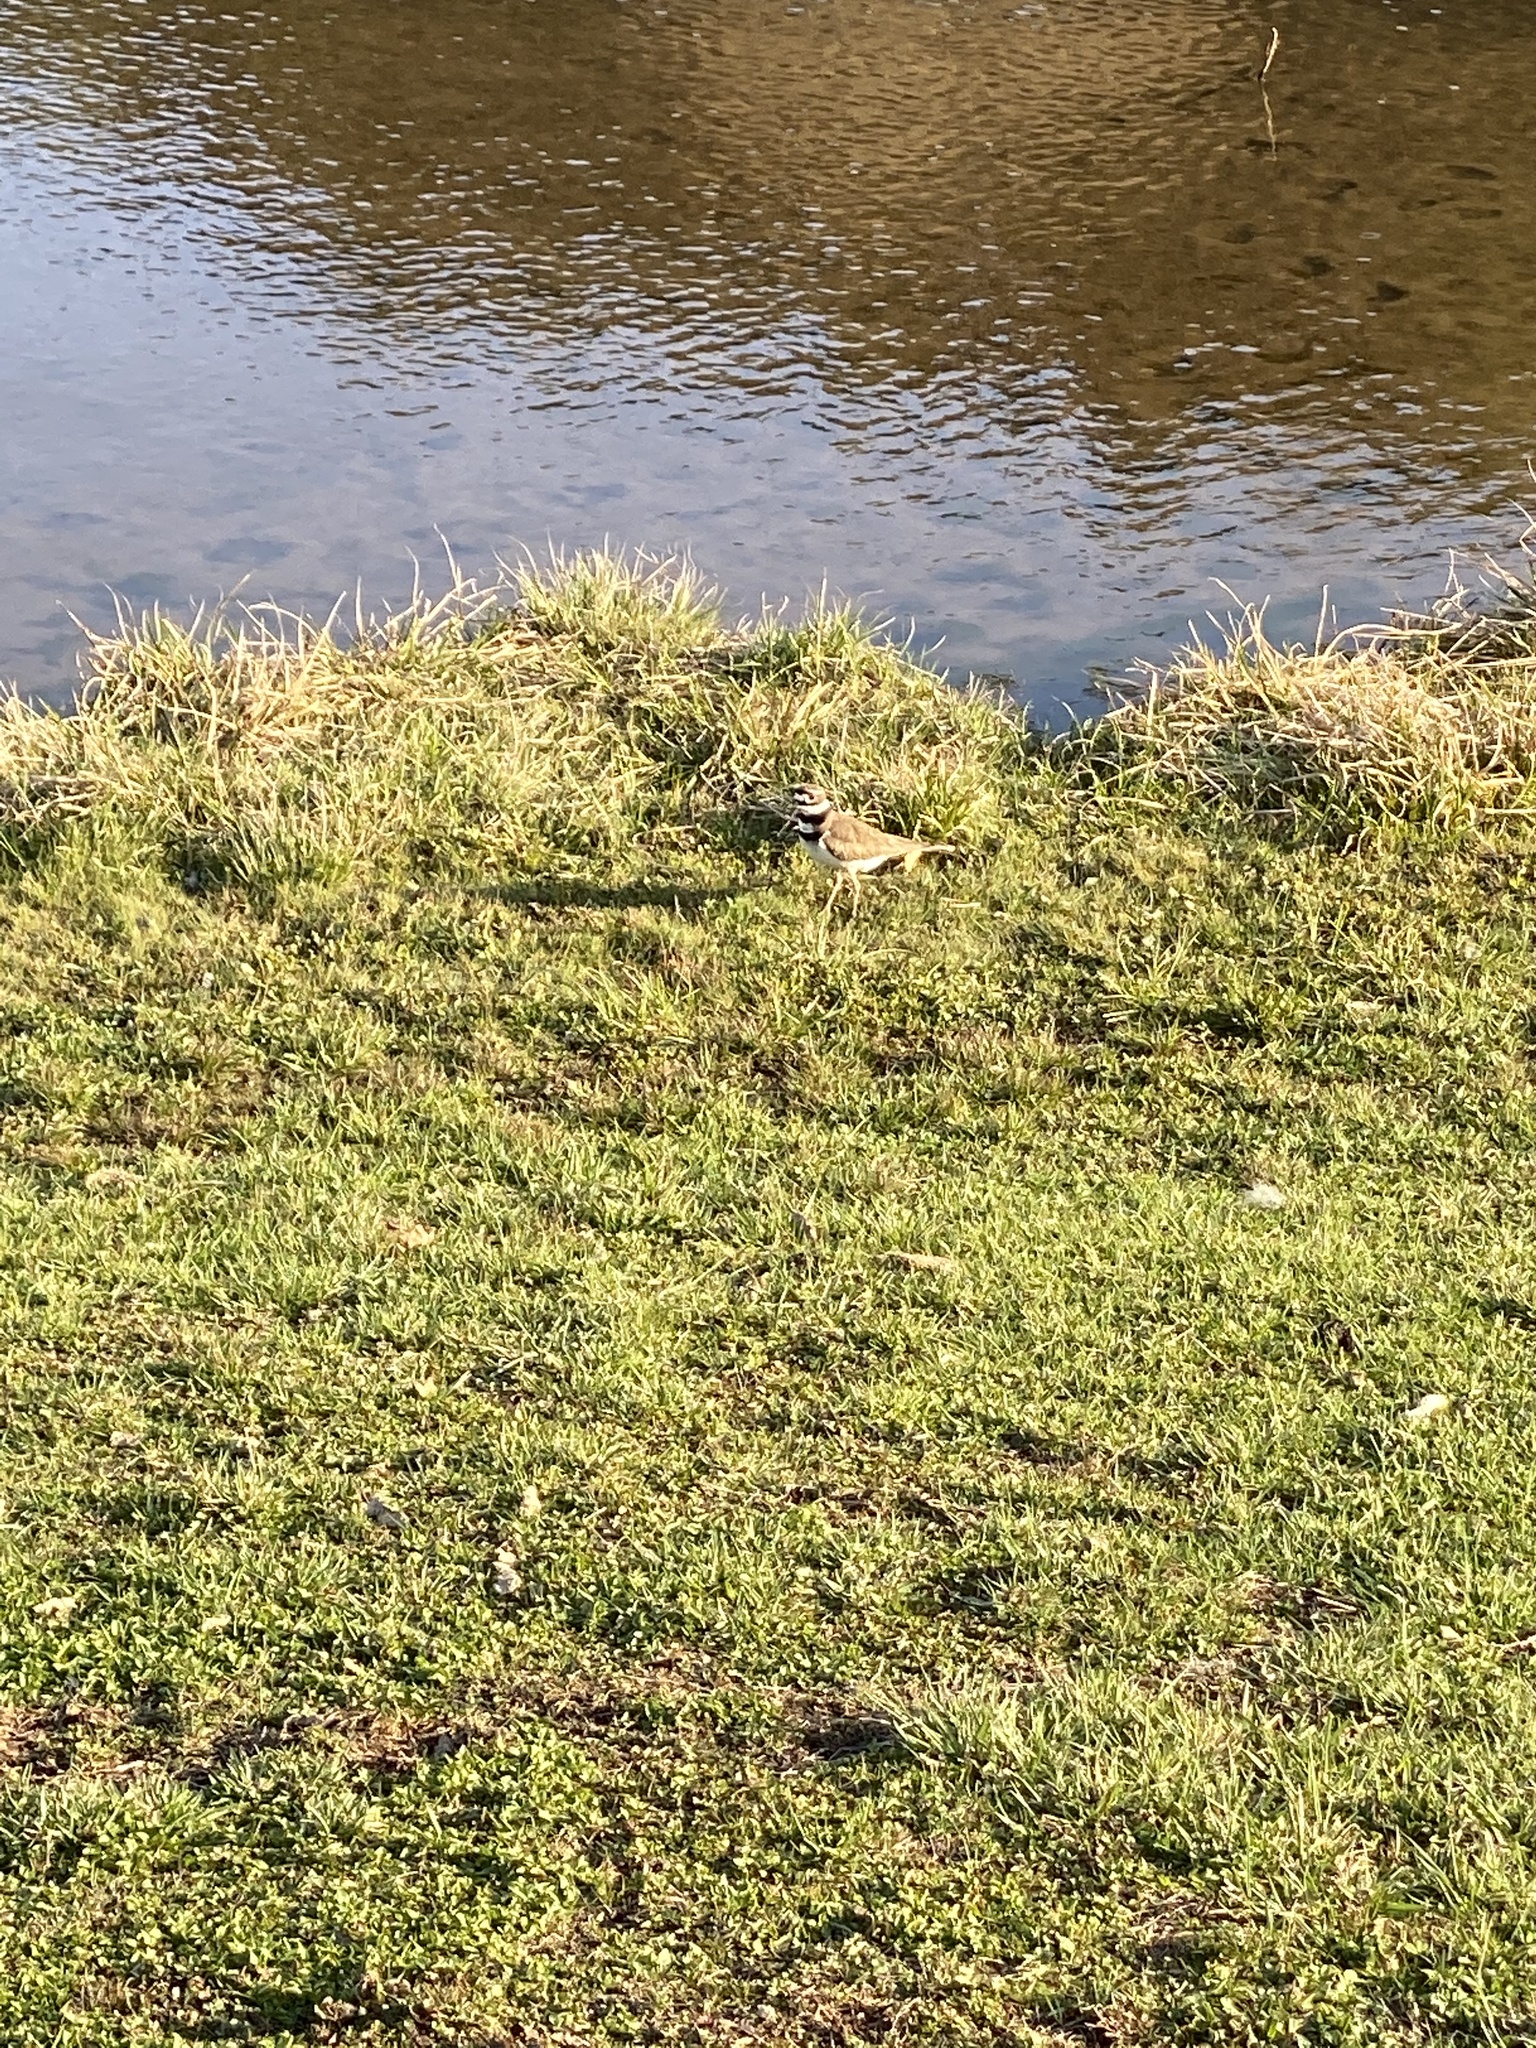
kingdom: Animalia
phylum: Chordata
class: Aves
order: Charadriiformes
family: Charadriidae
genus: Charadrius
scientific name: Charadrius vociferus
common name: Killdeer
